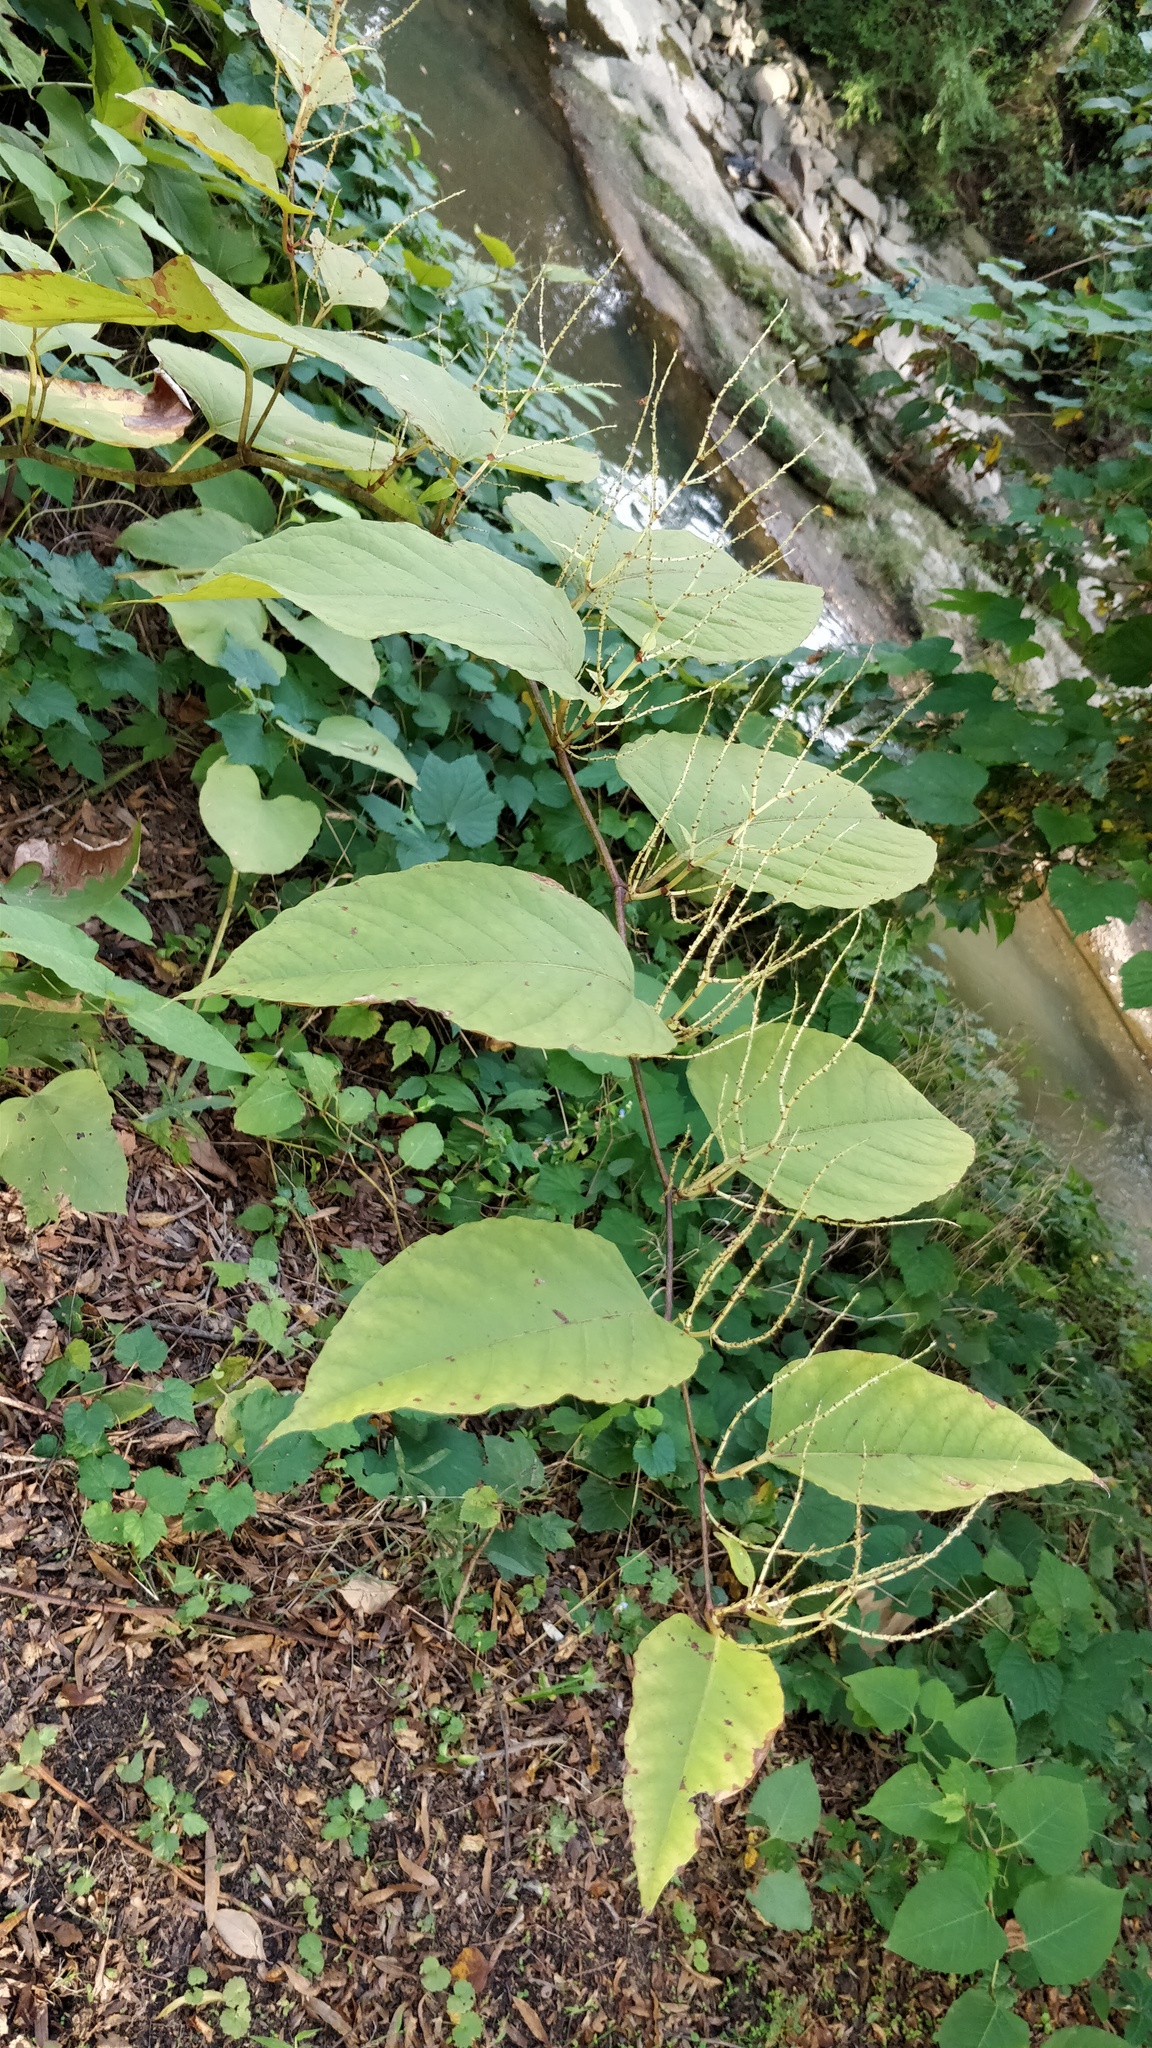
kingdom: Plantae
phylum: Tracheophyta
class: Magnoliopsida
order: Caryophyllales
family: Polygonaceae
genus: Reynoutria
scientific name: Reynoutria japonica
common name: Japanese knotweed
